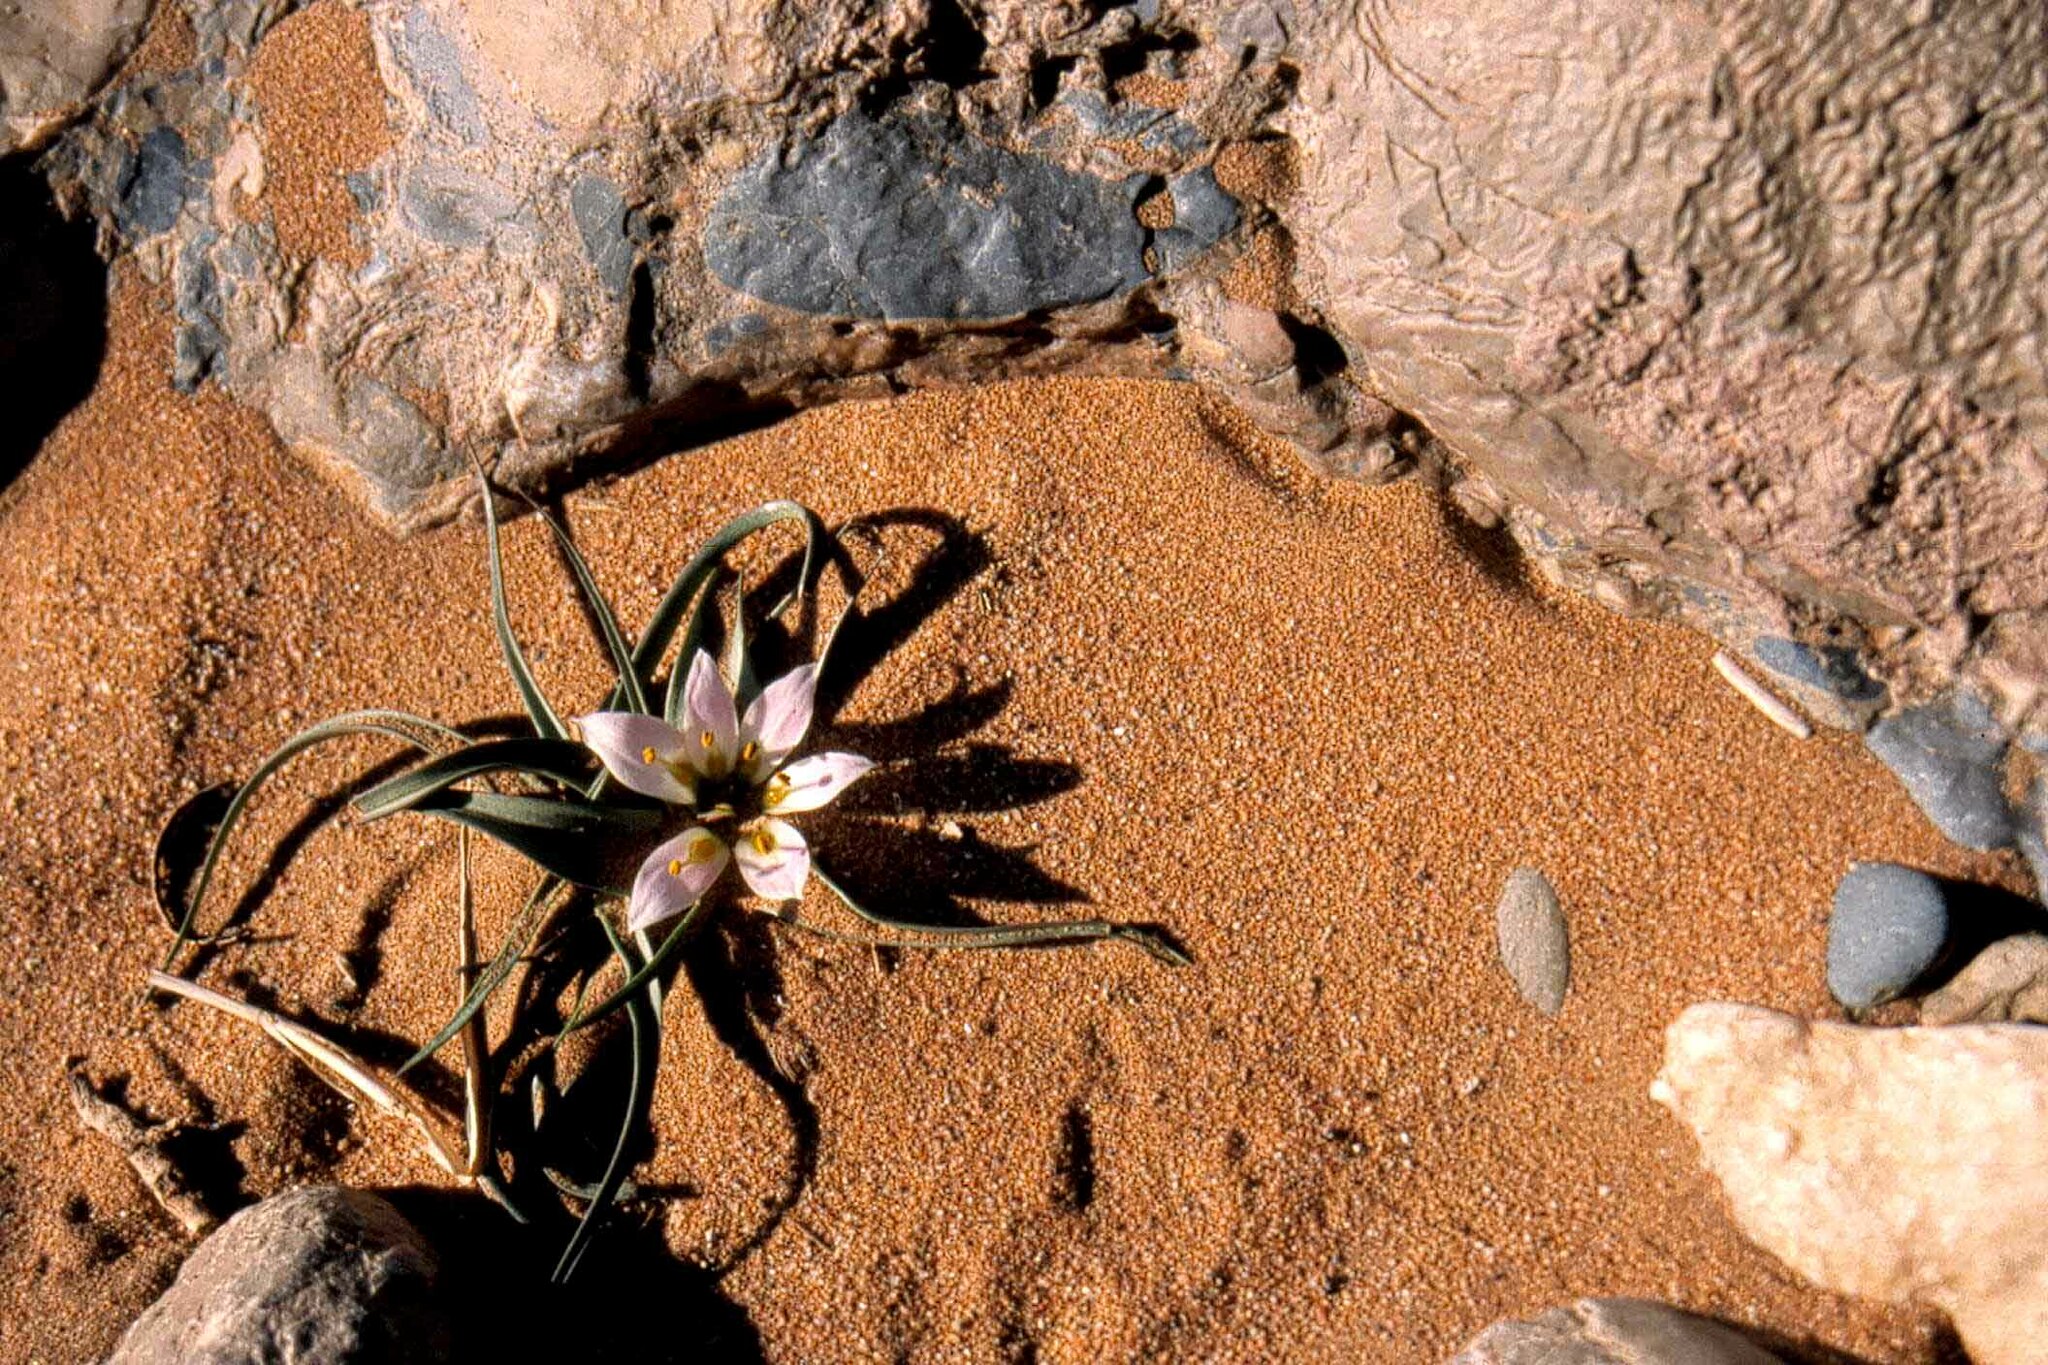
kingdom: Plantae
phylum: Tracheophyta
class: Liliopsida
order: Liliales
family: Colchicaceae
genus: Colchicum
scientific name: Colchicum gramineum
